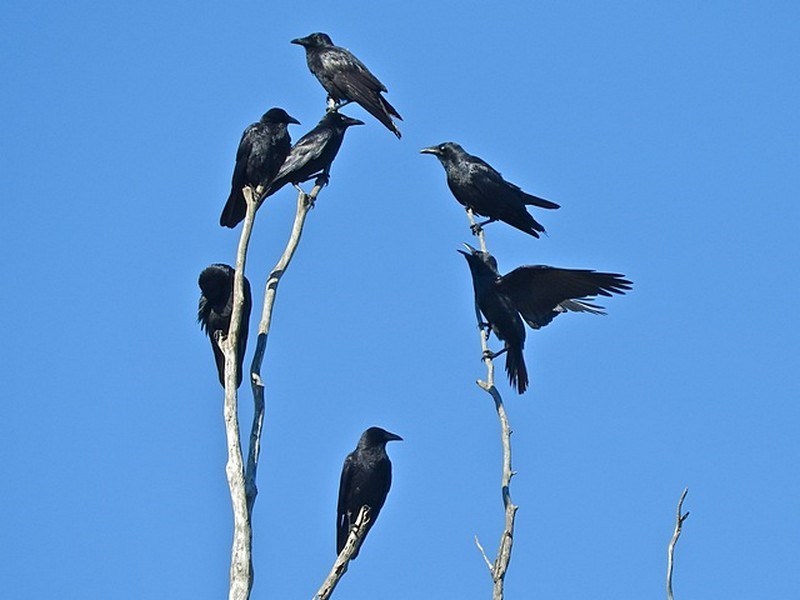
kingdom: Animalia
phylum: Chordata
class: Aves
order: Passeriformes
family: Corvidae
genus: Corvus
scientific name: Corvus mellori
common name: Little raven
